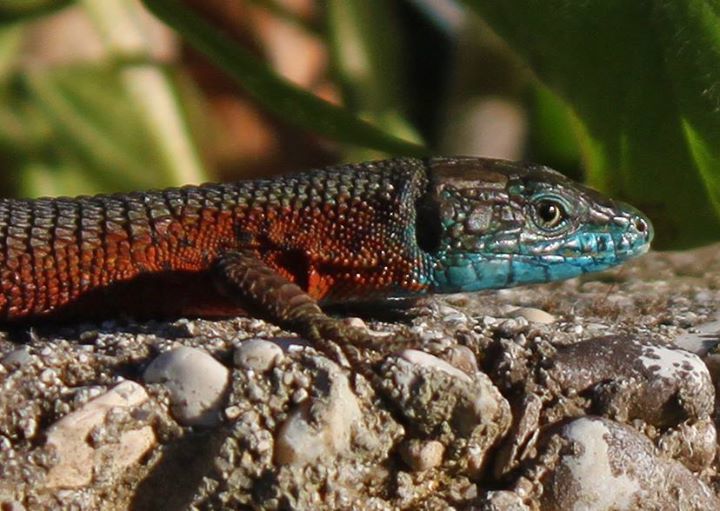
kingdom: Animalia
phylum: Chordata
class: Squamata
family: Lacertidae
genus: Algyroides
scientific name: Algyroides nigropunctatus
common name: Blue-throated keeled lizard
